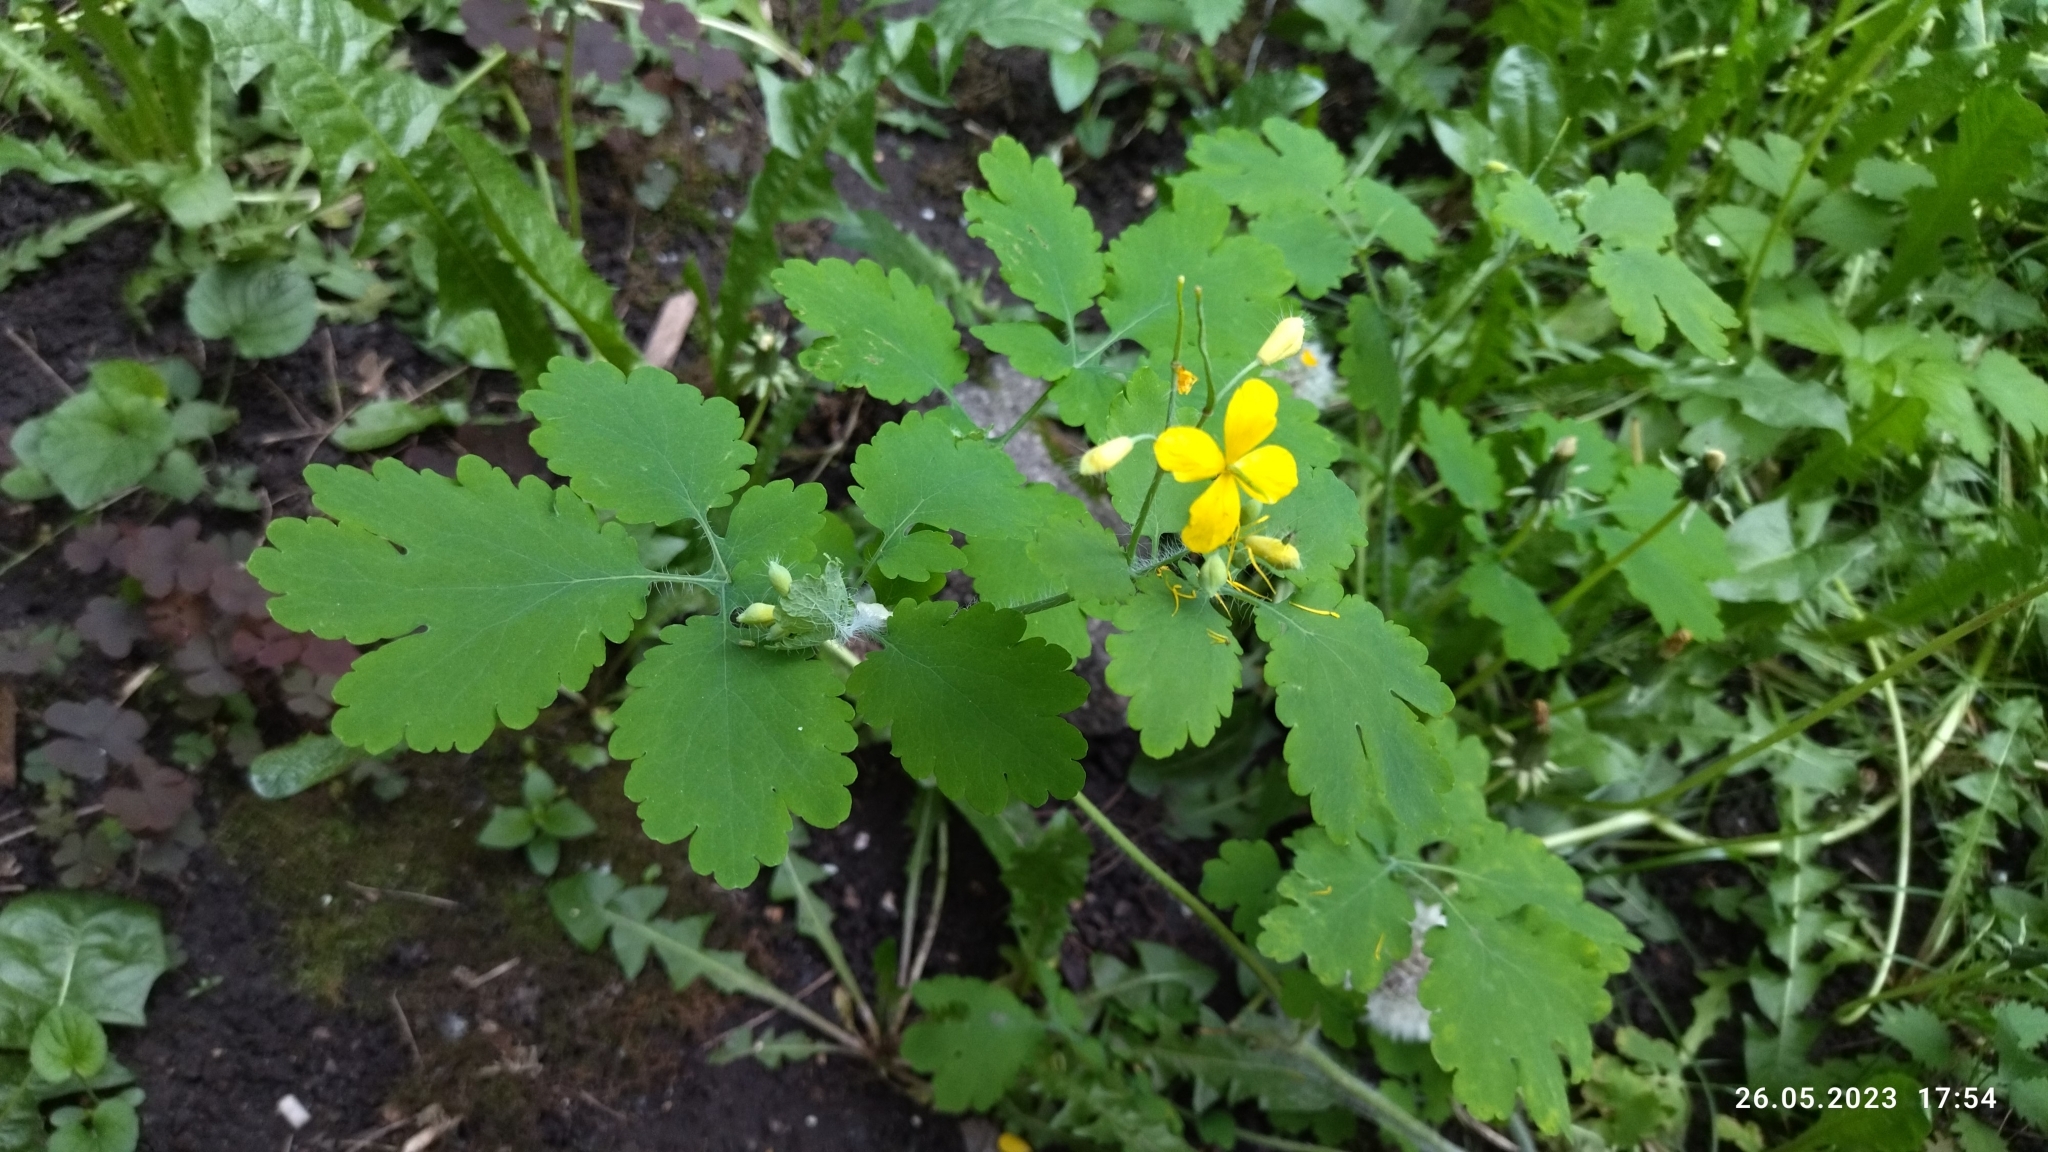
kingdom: Plantae
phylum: Tracheophyta
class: Magnoliopsida
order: Ranunculales
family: Papaveraceae
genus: Chelidonium
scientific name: Chelidonium majus
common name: Greater celandine
